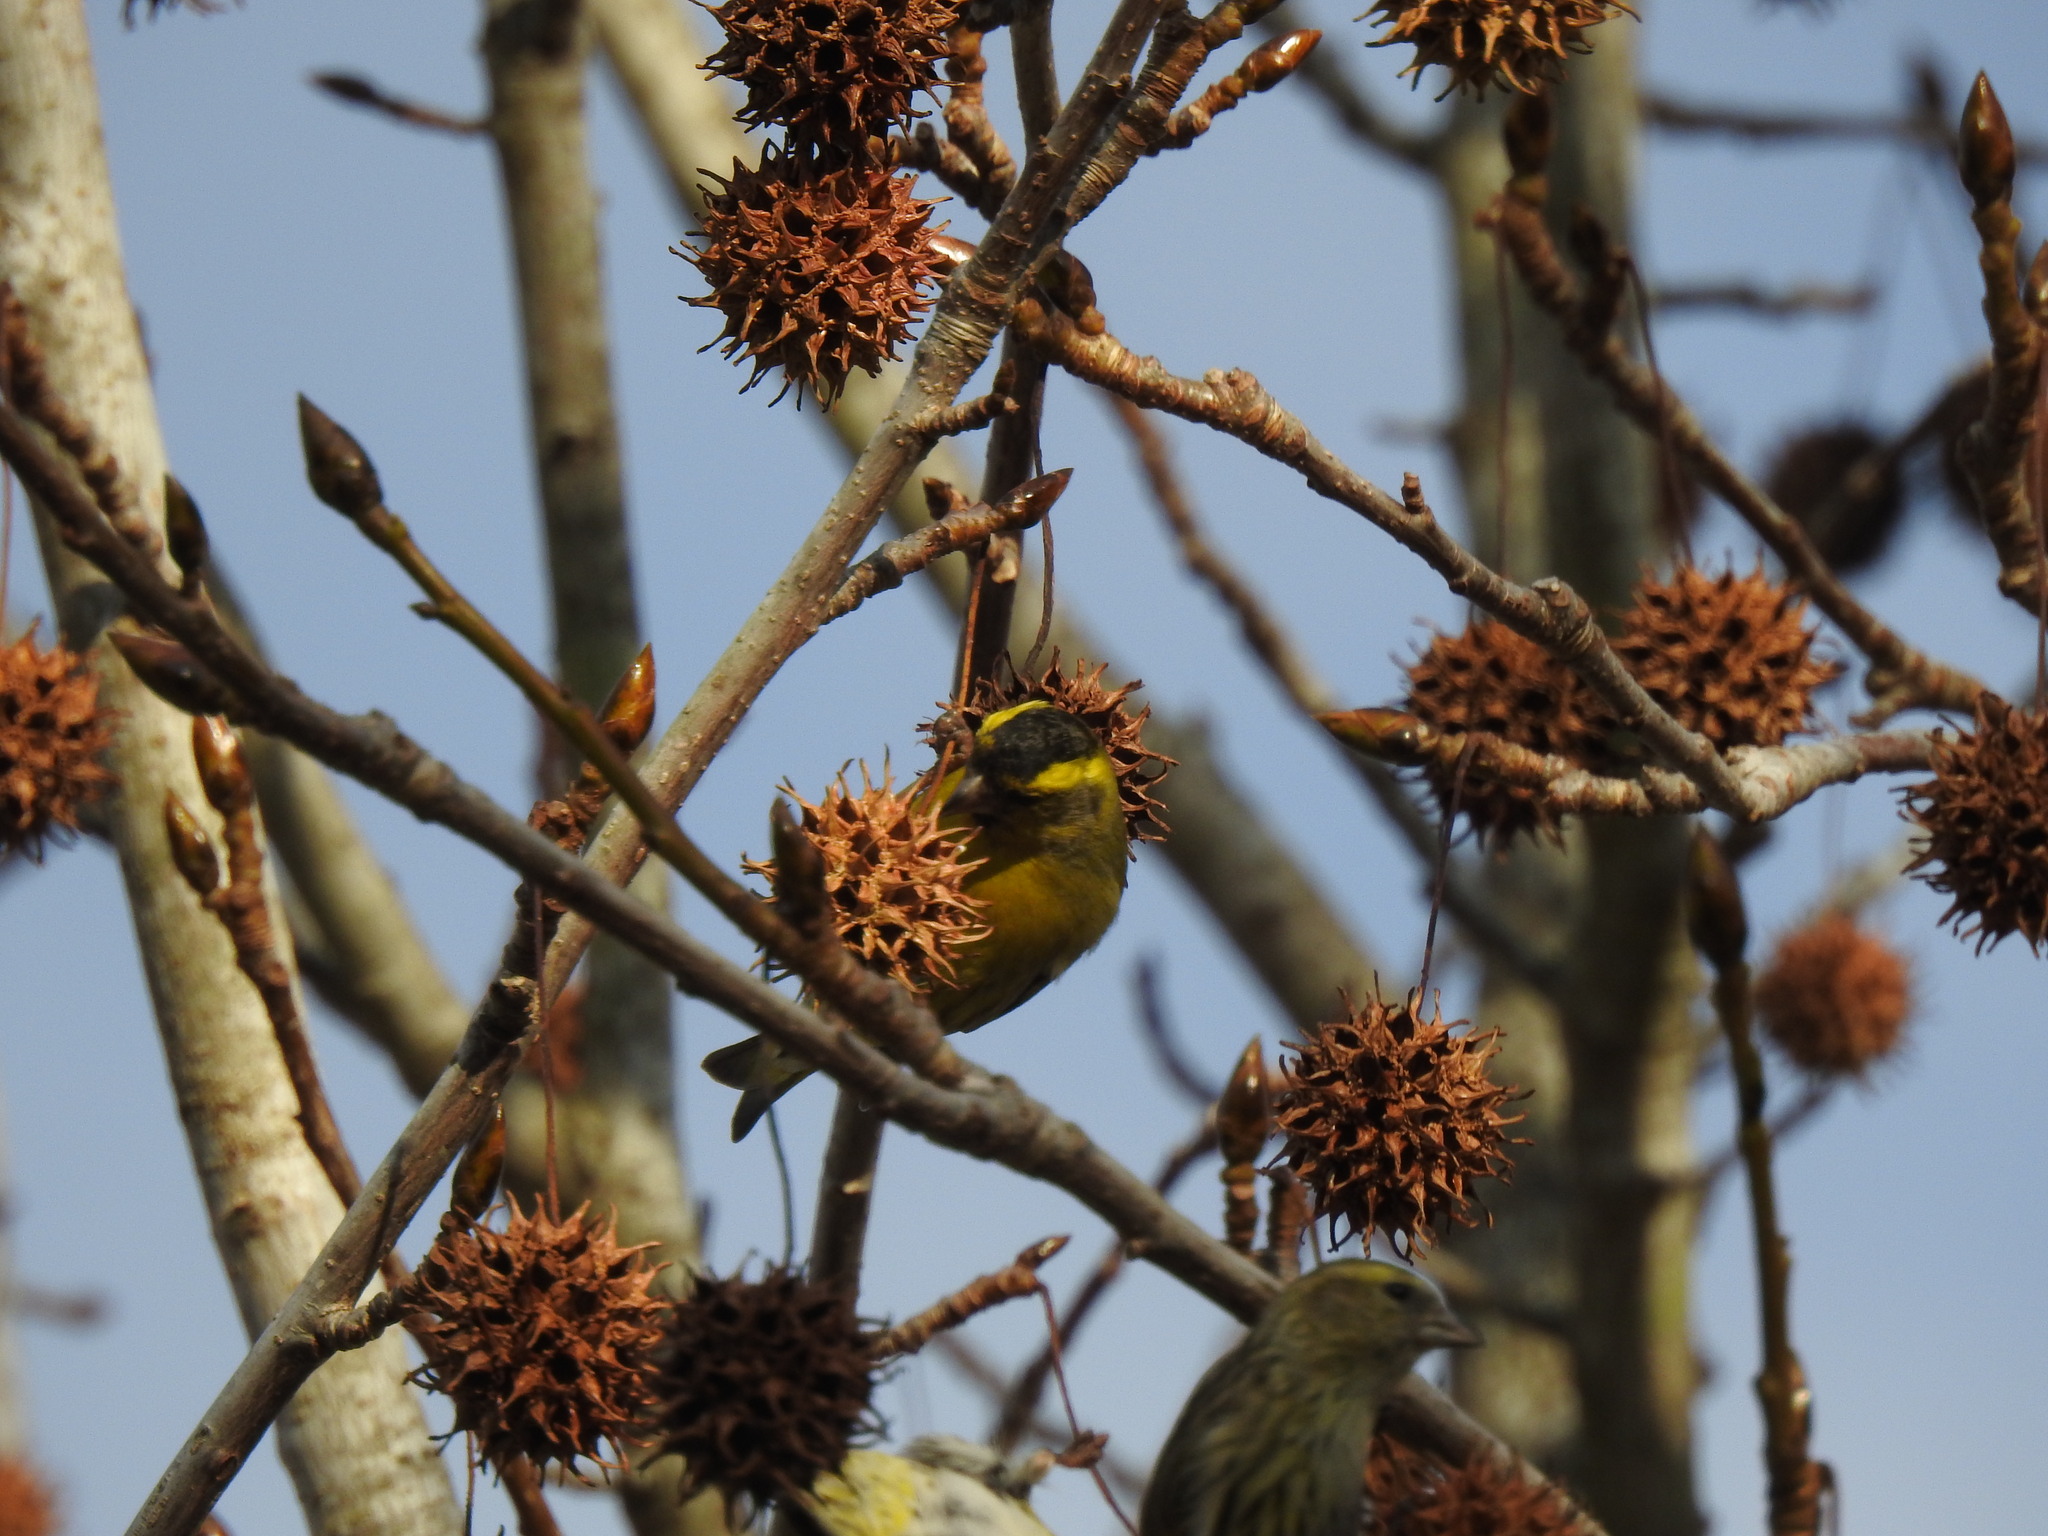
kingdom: Animalia
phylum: Chordata
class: Aves
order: Passeriformes
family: Fringillidae
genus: Spinus
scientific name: Spinus spinus
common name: Eurasian siskin
